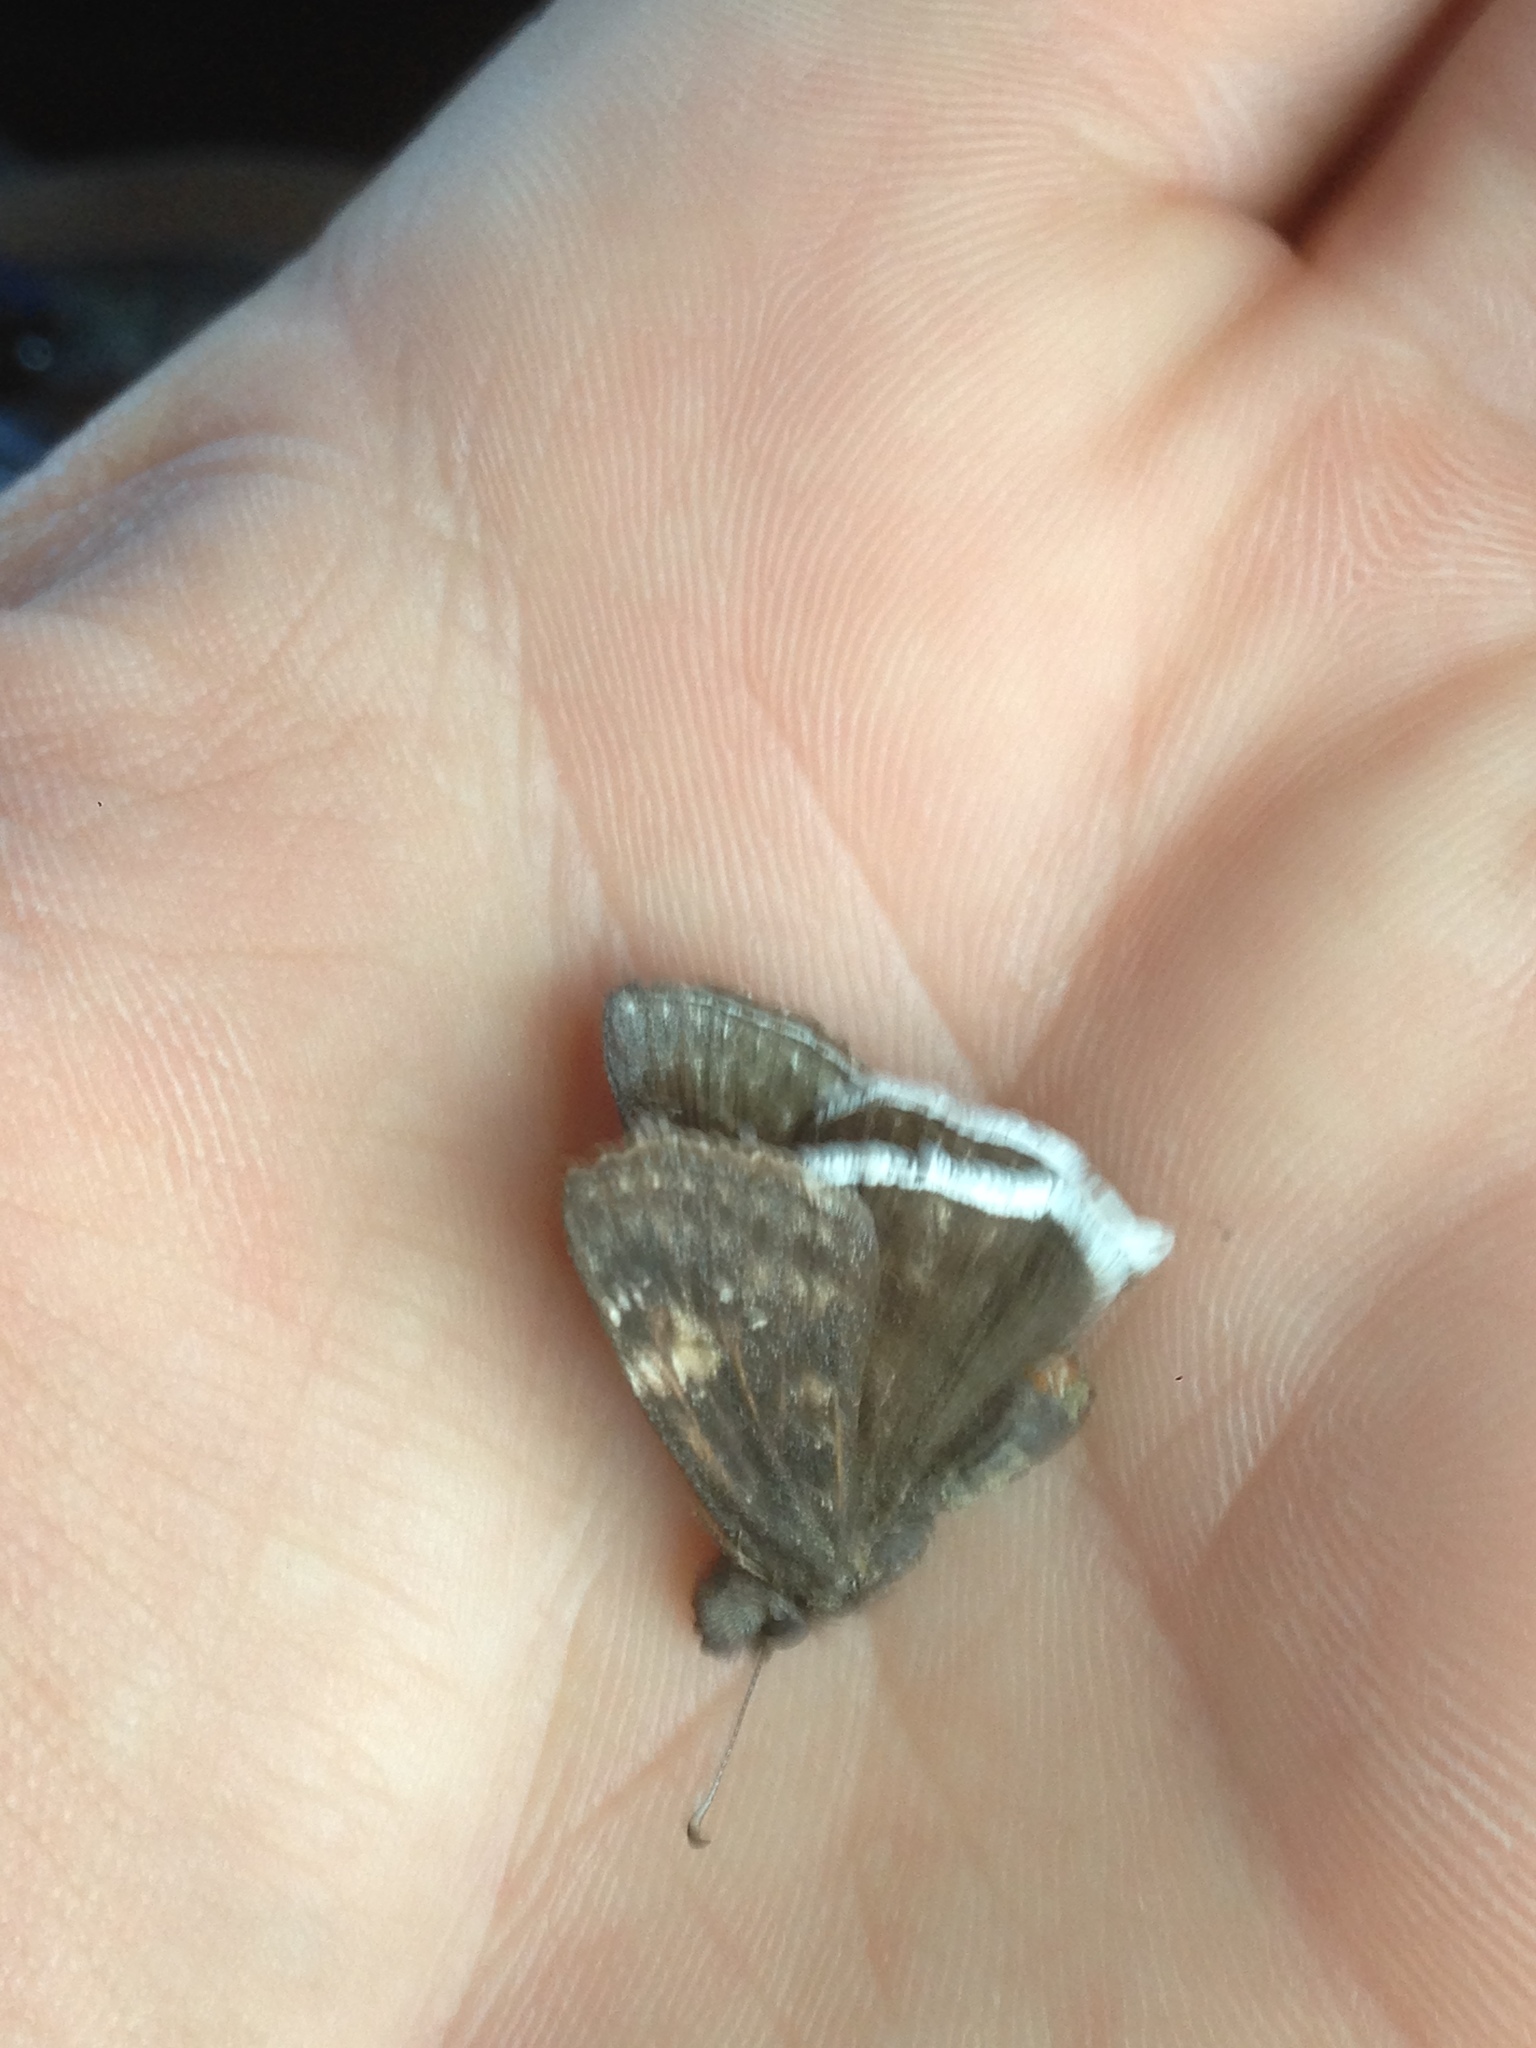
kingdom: Animalia
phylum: Arthropoda
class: Insecta
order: Lepidoptera
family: Hesperiidae
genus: Erynnis
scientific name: Erynnis funeralis
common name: Funereal duskywing
